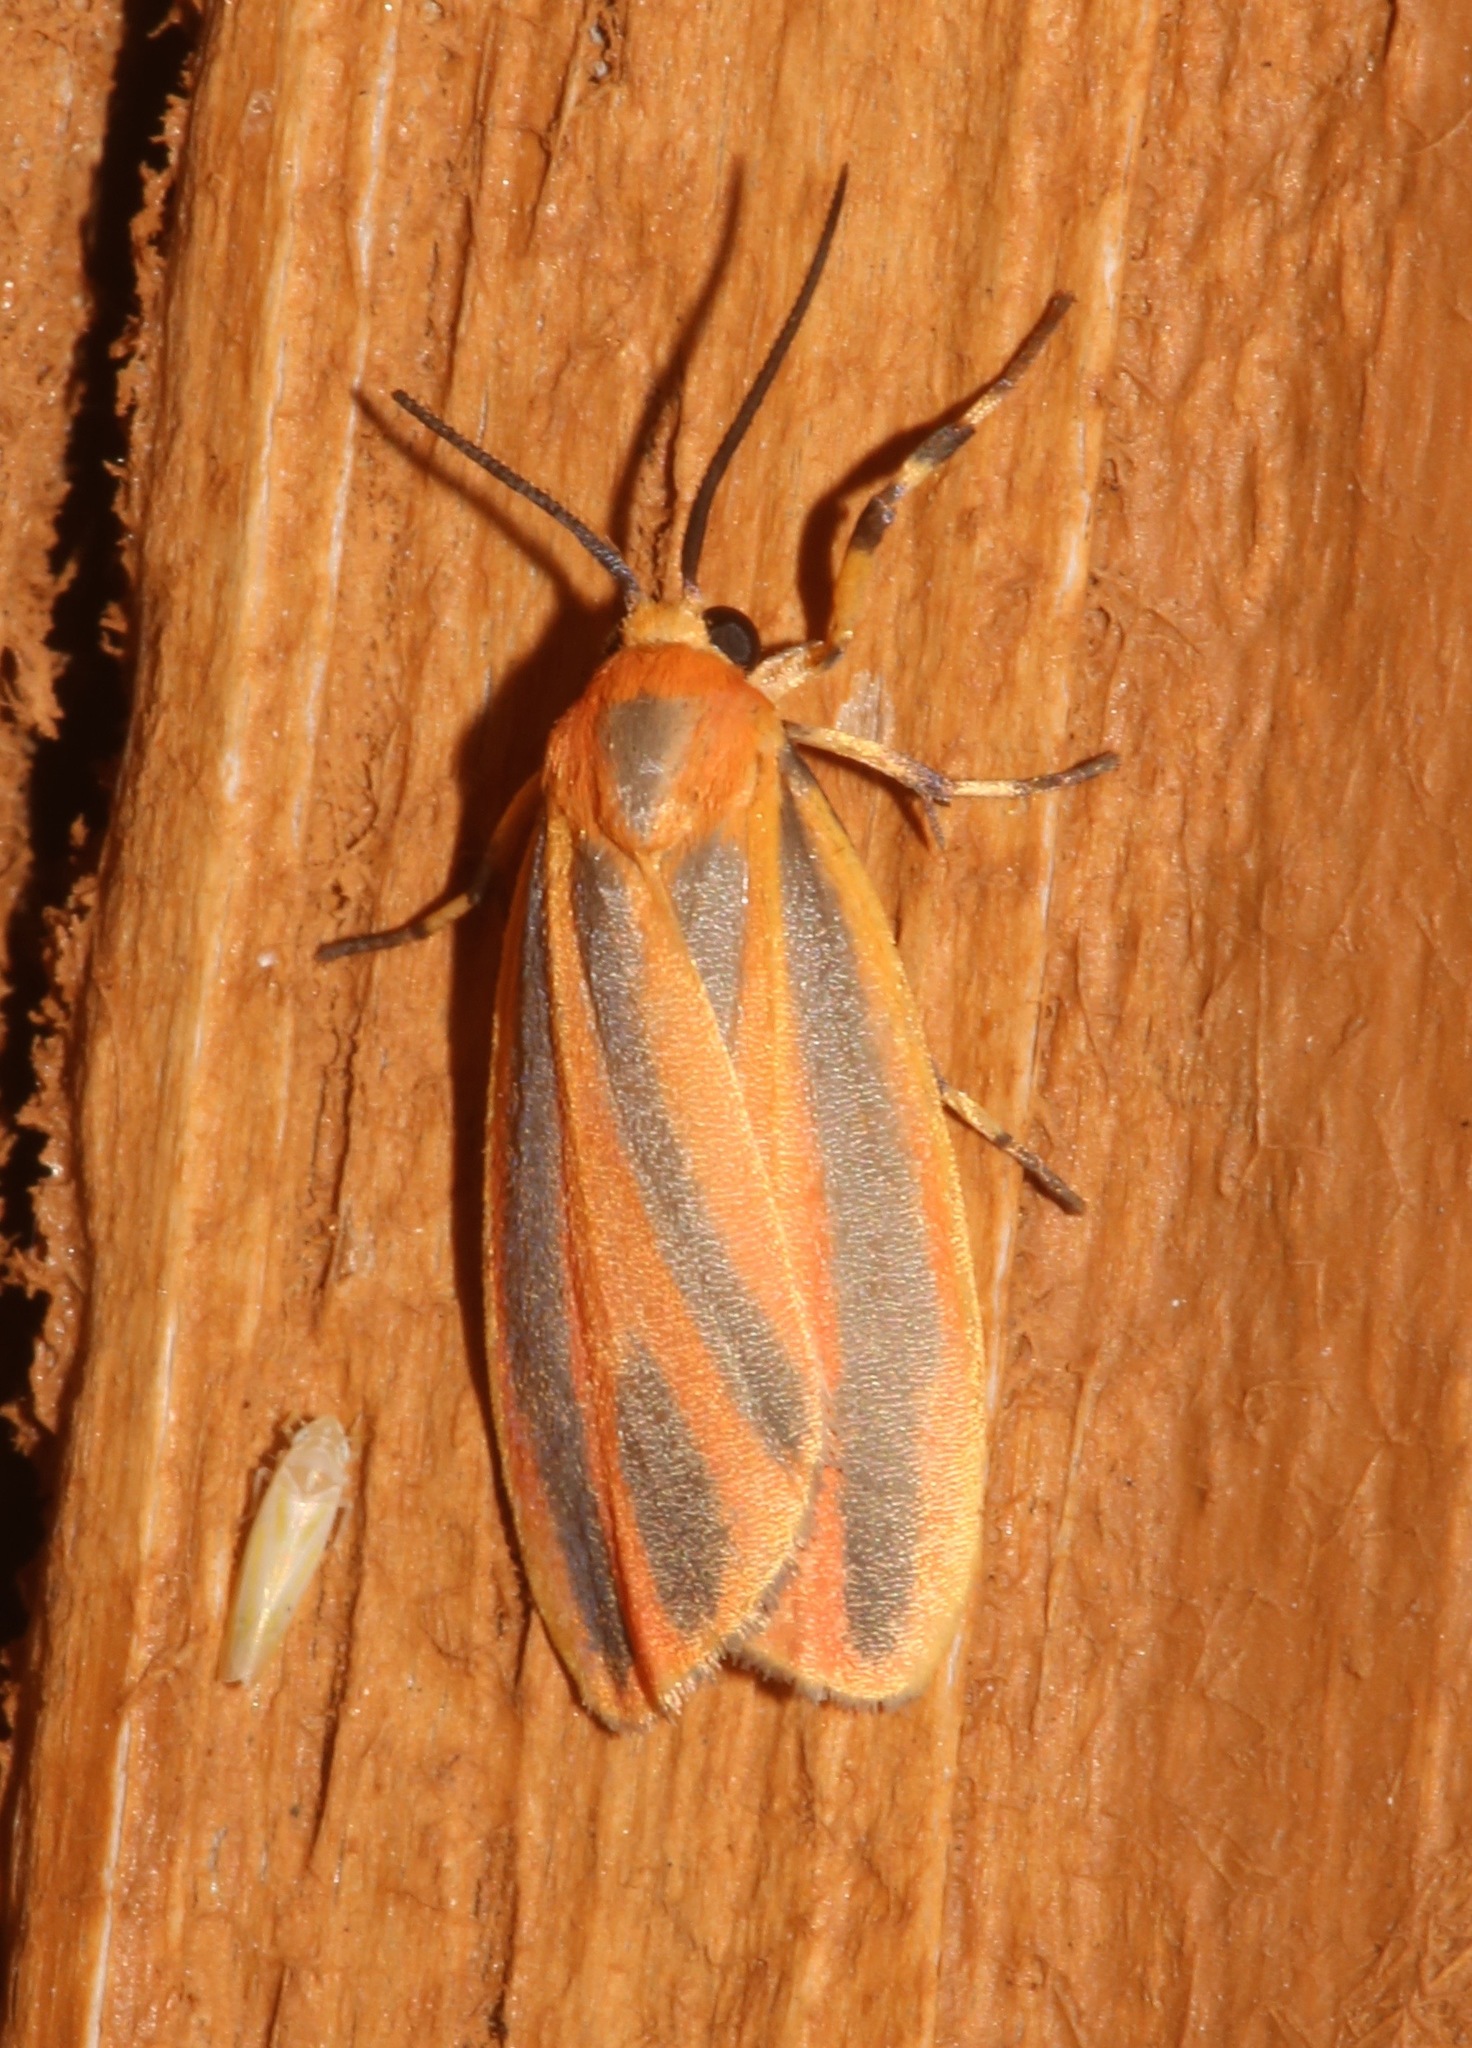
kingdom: Animalia
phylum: Arthropoda
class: Insecta
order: Lepidoptera
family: Erebidae
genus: Hypoprepia
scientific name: Hypoprepia fucosa
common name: Painted lichen moth
